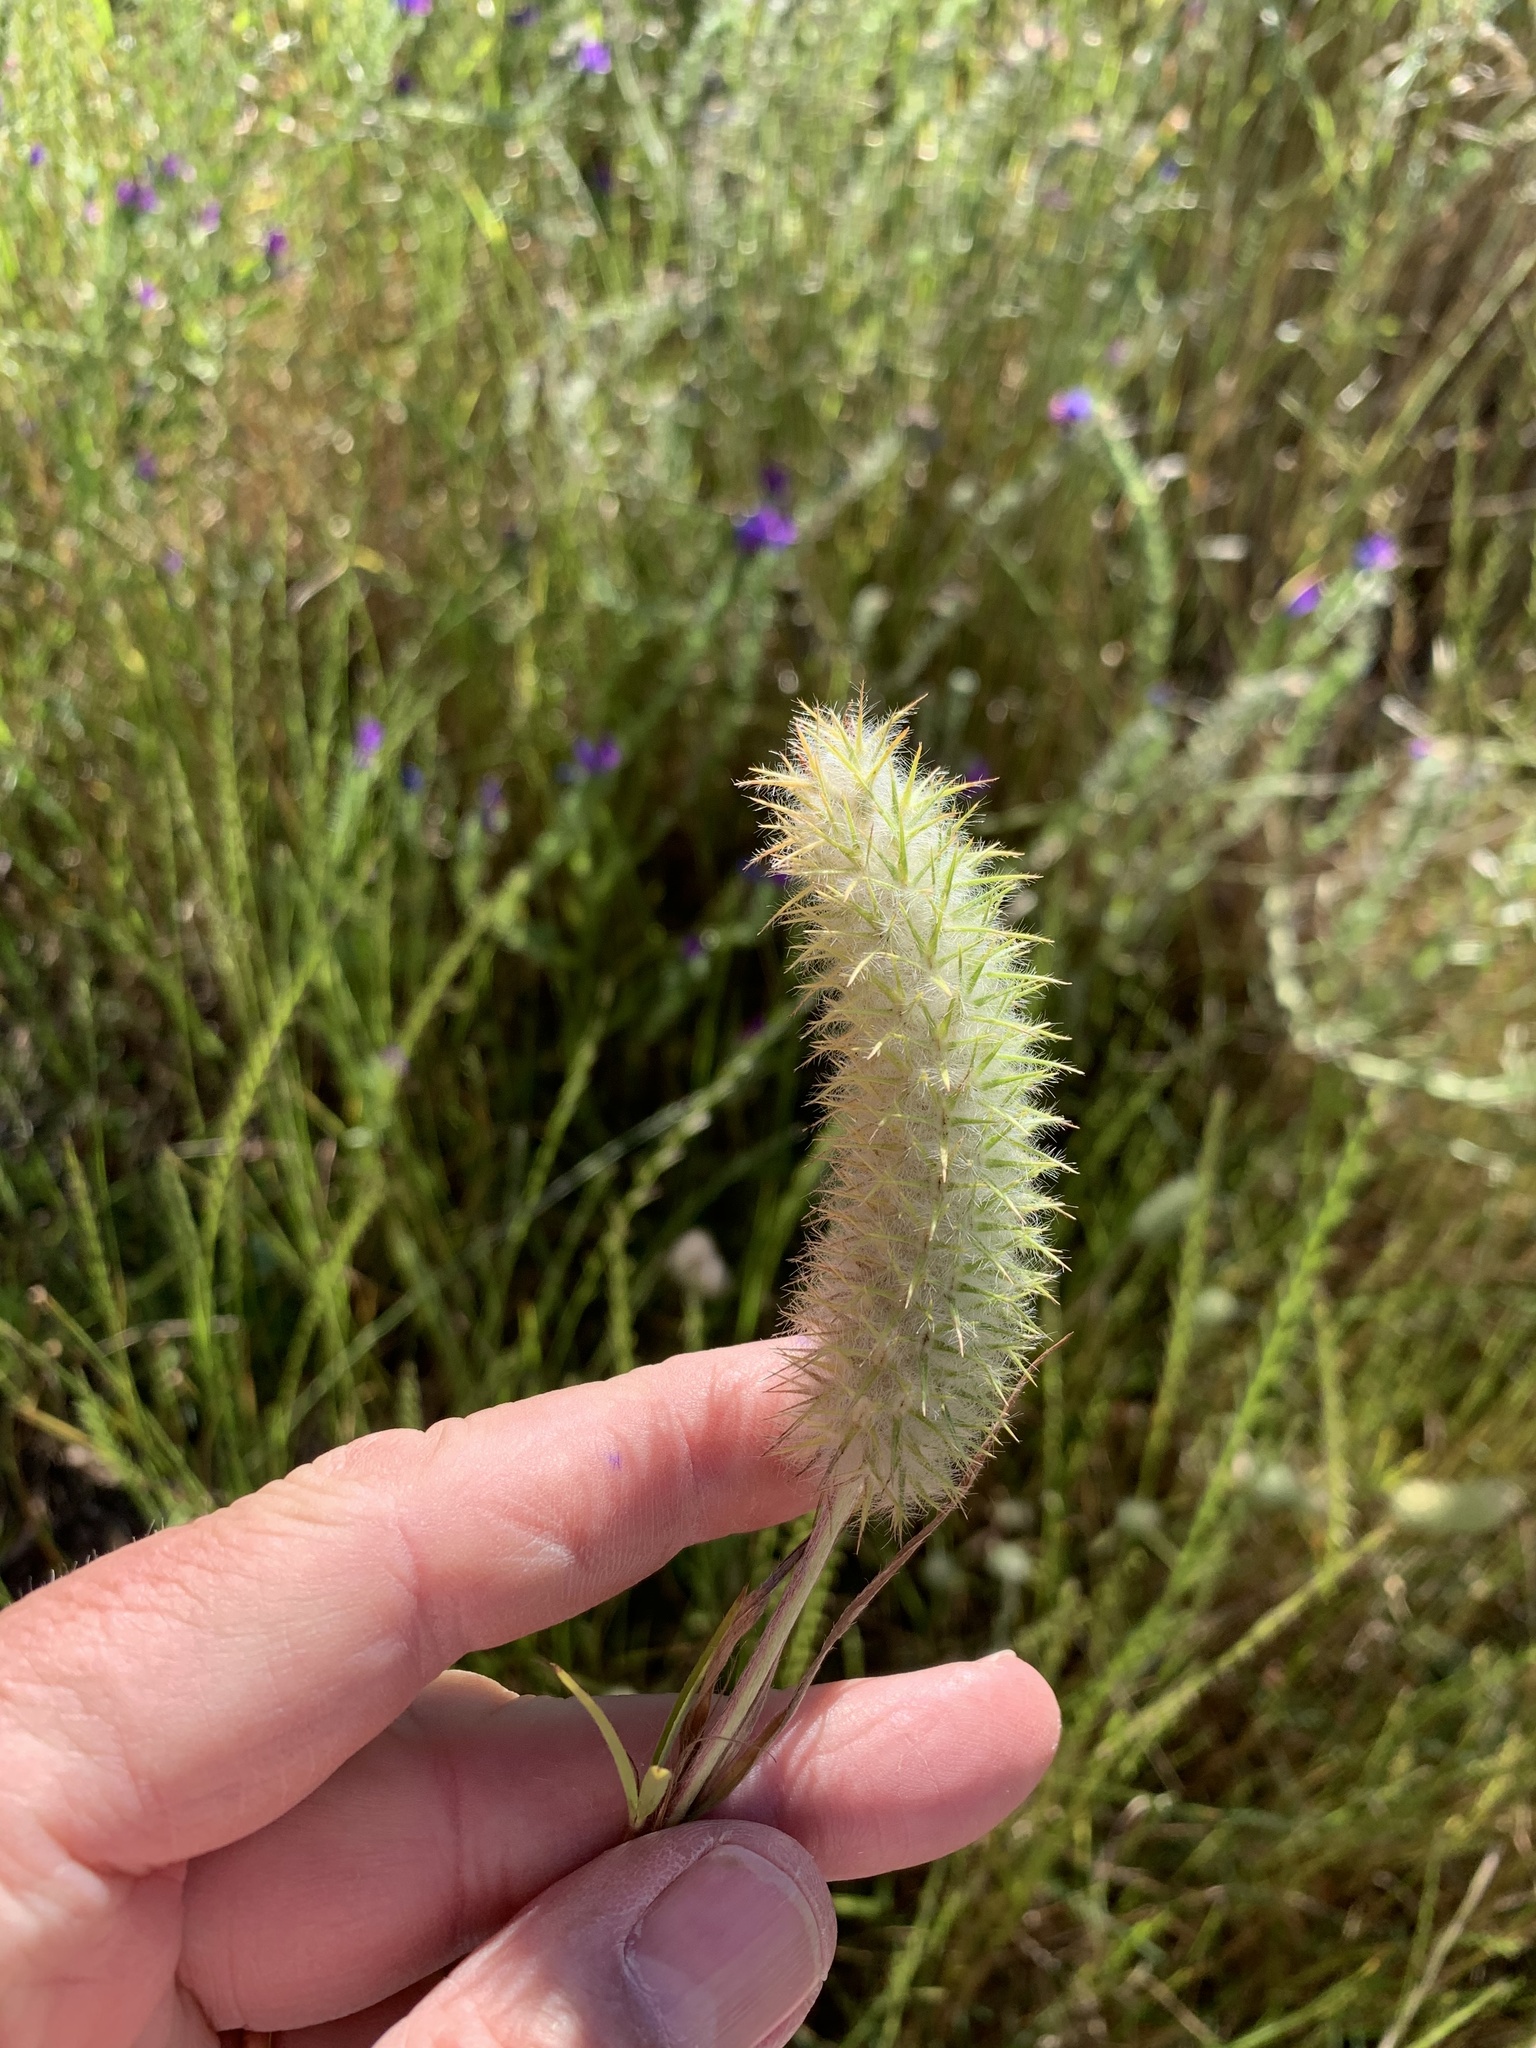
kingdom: Plantae
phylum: Tracheophyta
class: Magnoliopsida
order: Fabales
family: Fabaceae
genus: Trifolium
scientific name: Trifolium angustifolium
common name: Narrow clover
